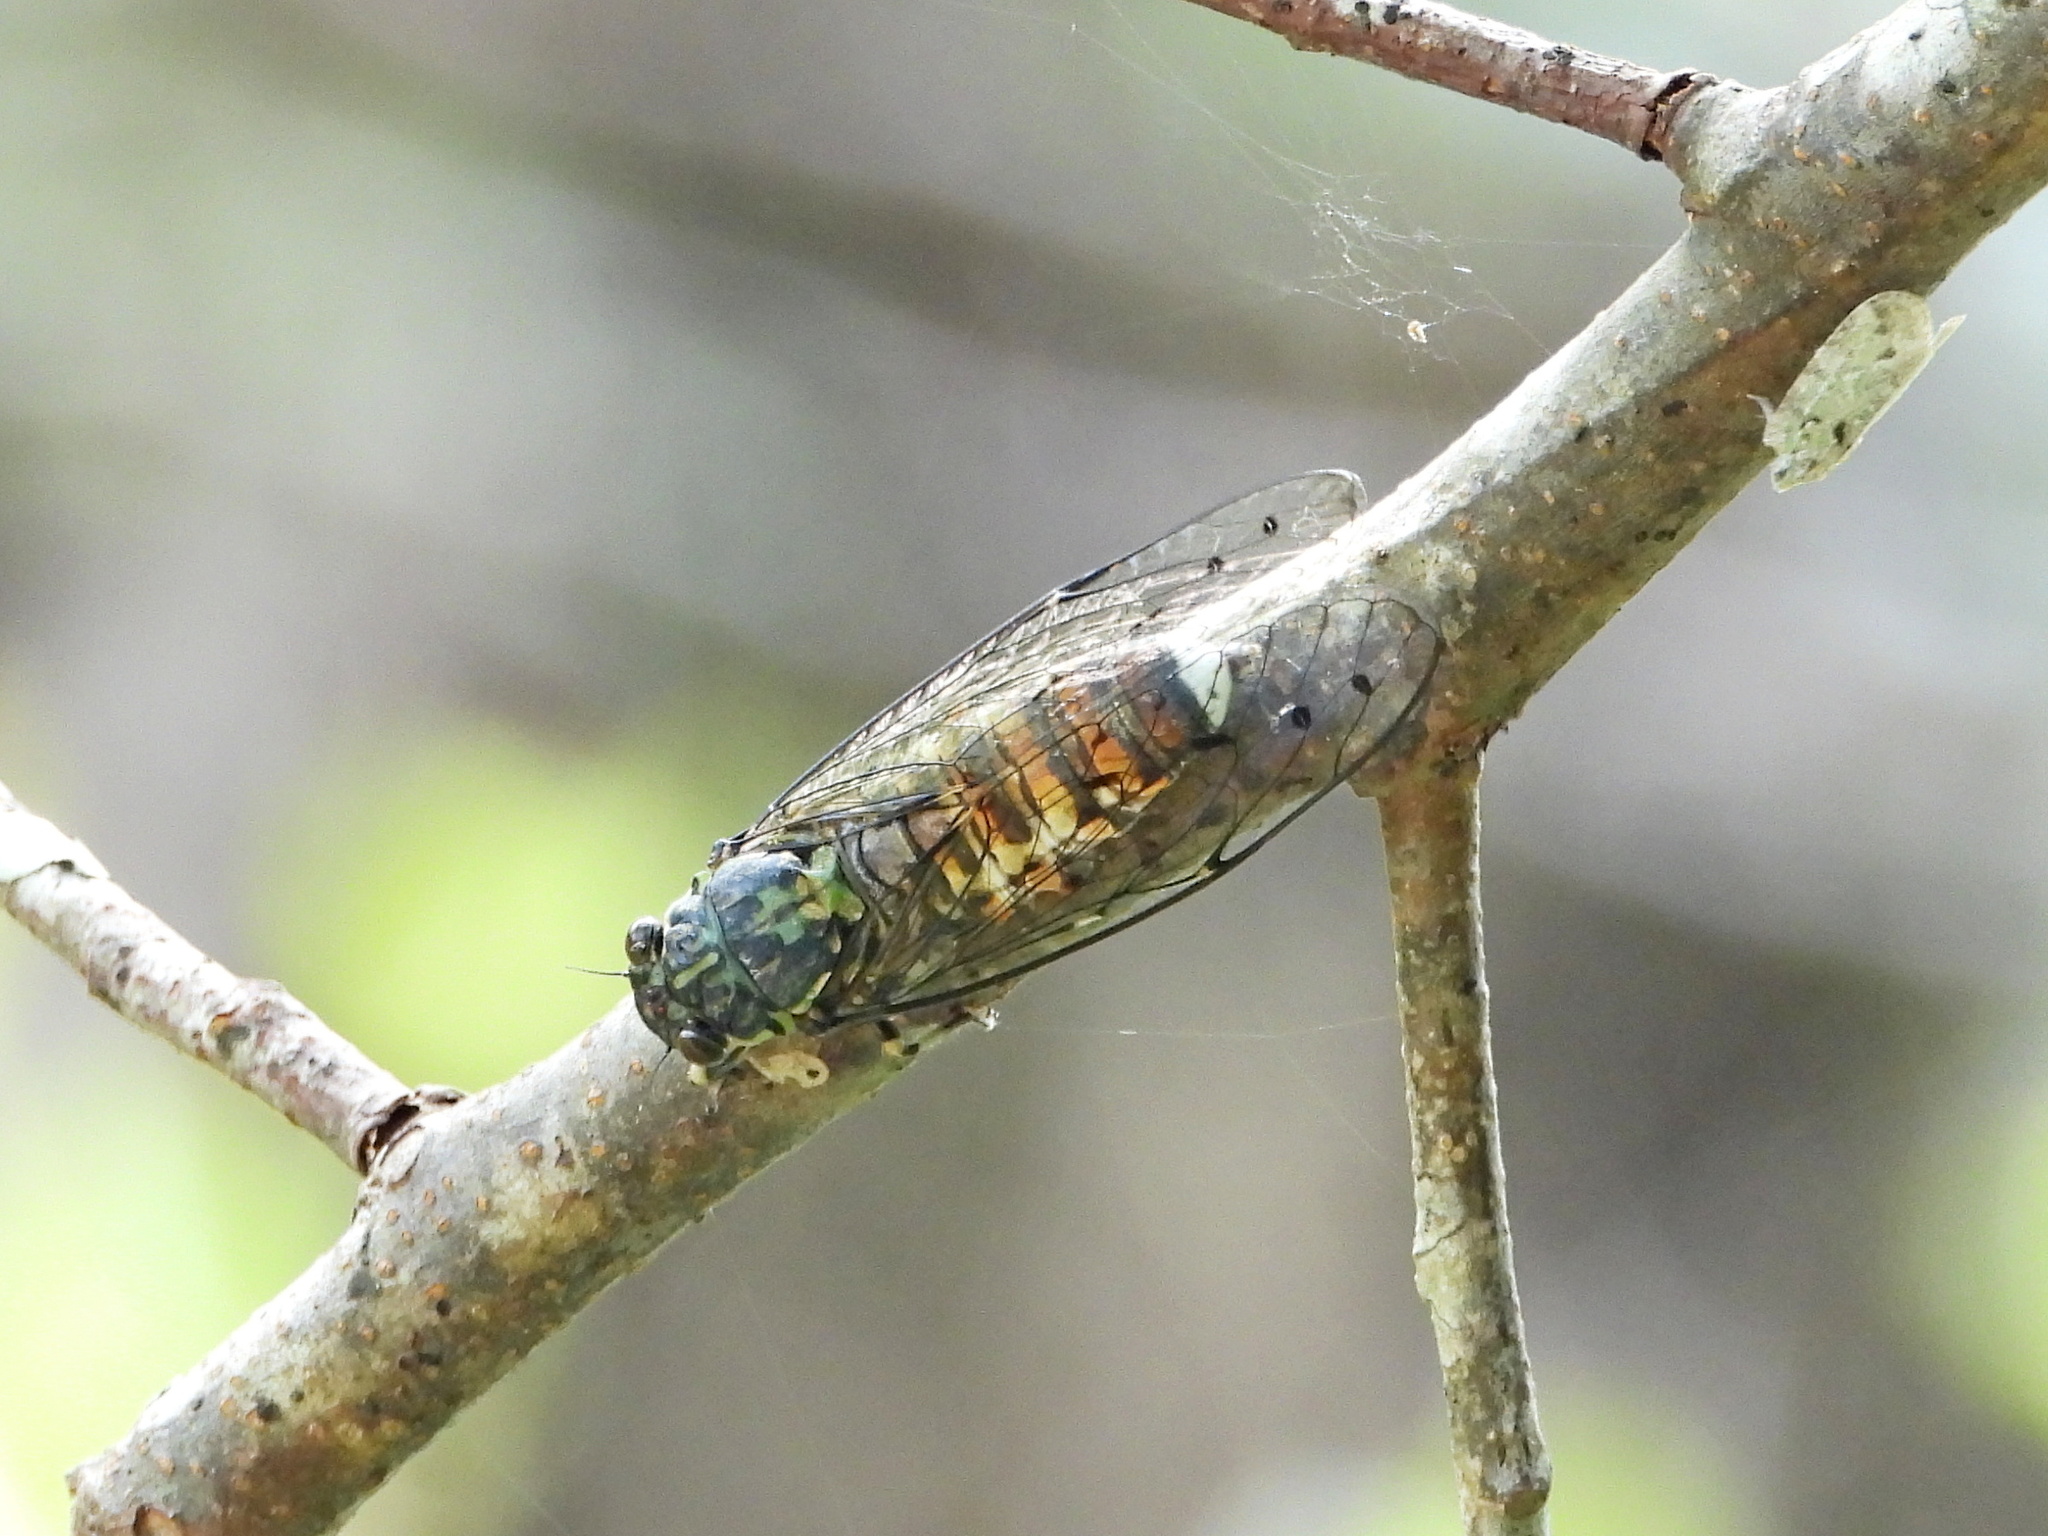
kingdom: Animalia
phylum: Arthropoda
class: Insecta
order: Hemiptera
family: Cicadidae
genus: Euterpnosia
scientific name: Euterpnosia varicolor
